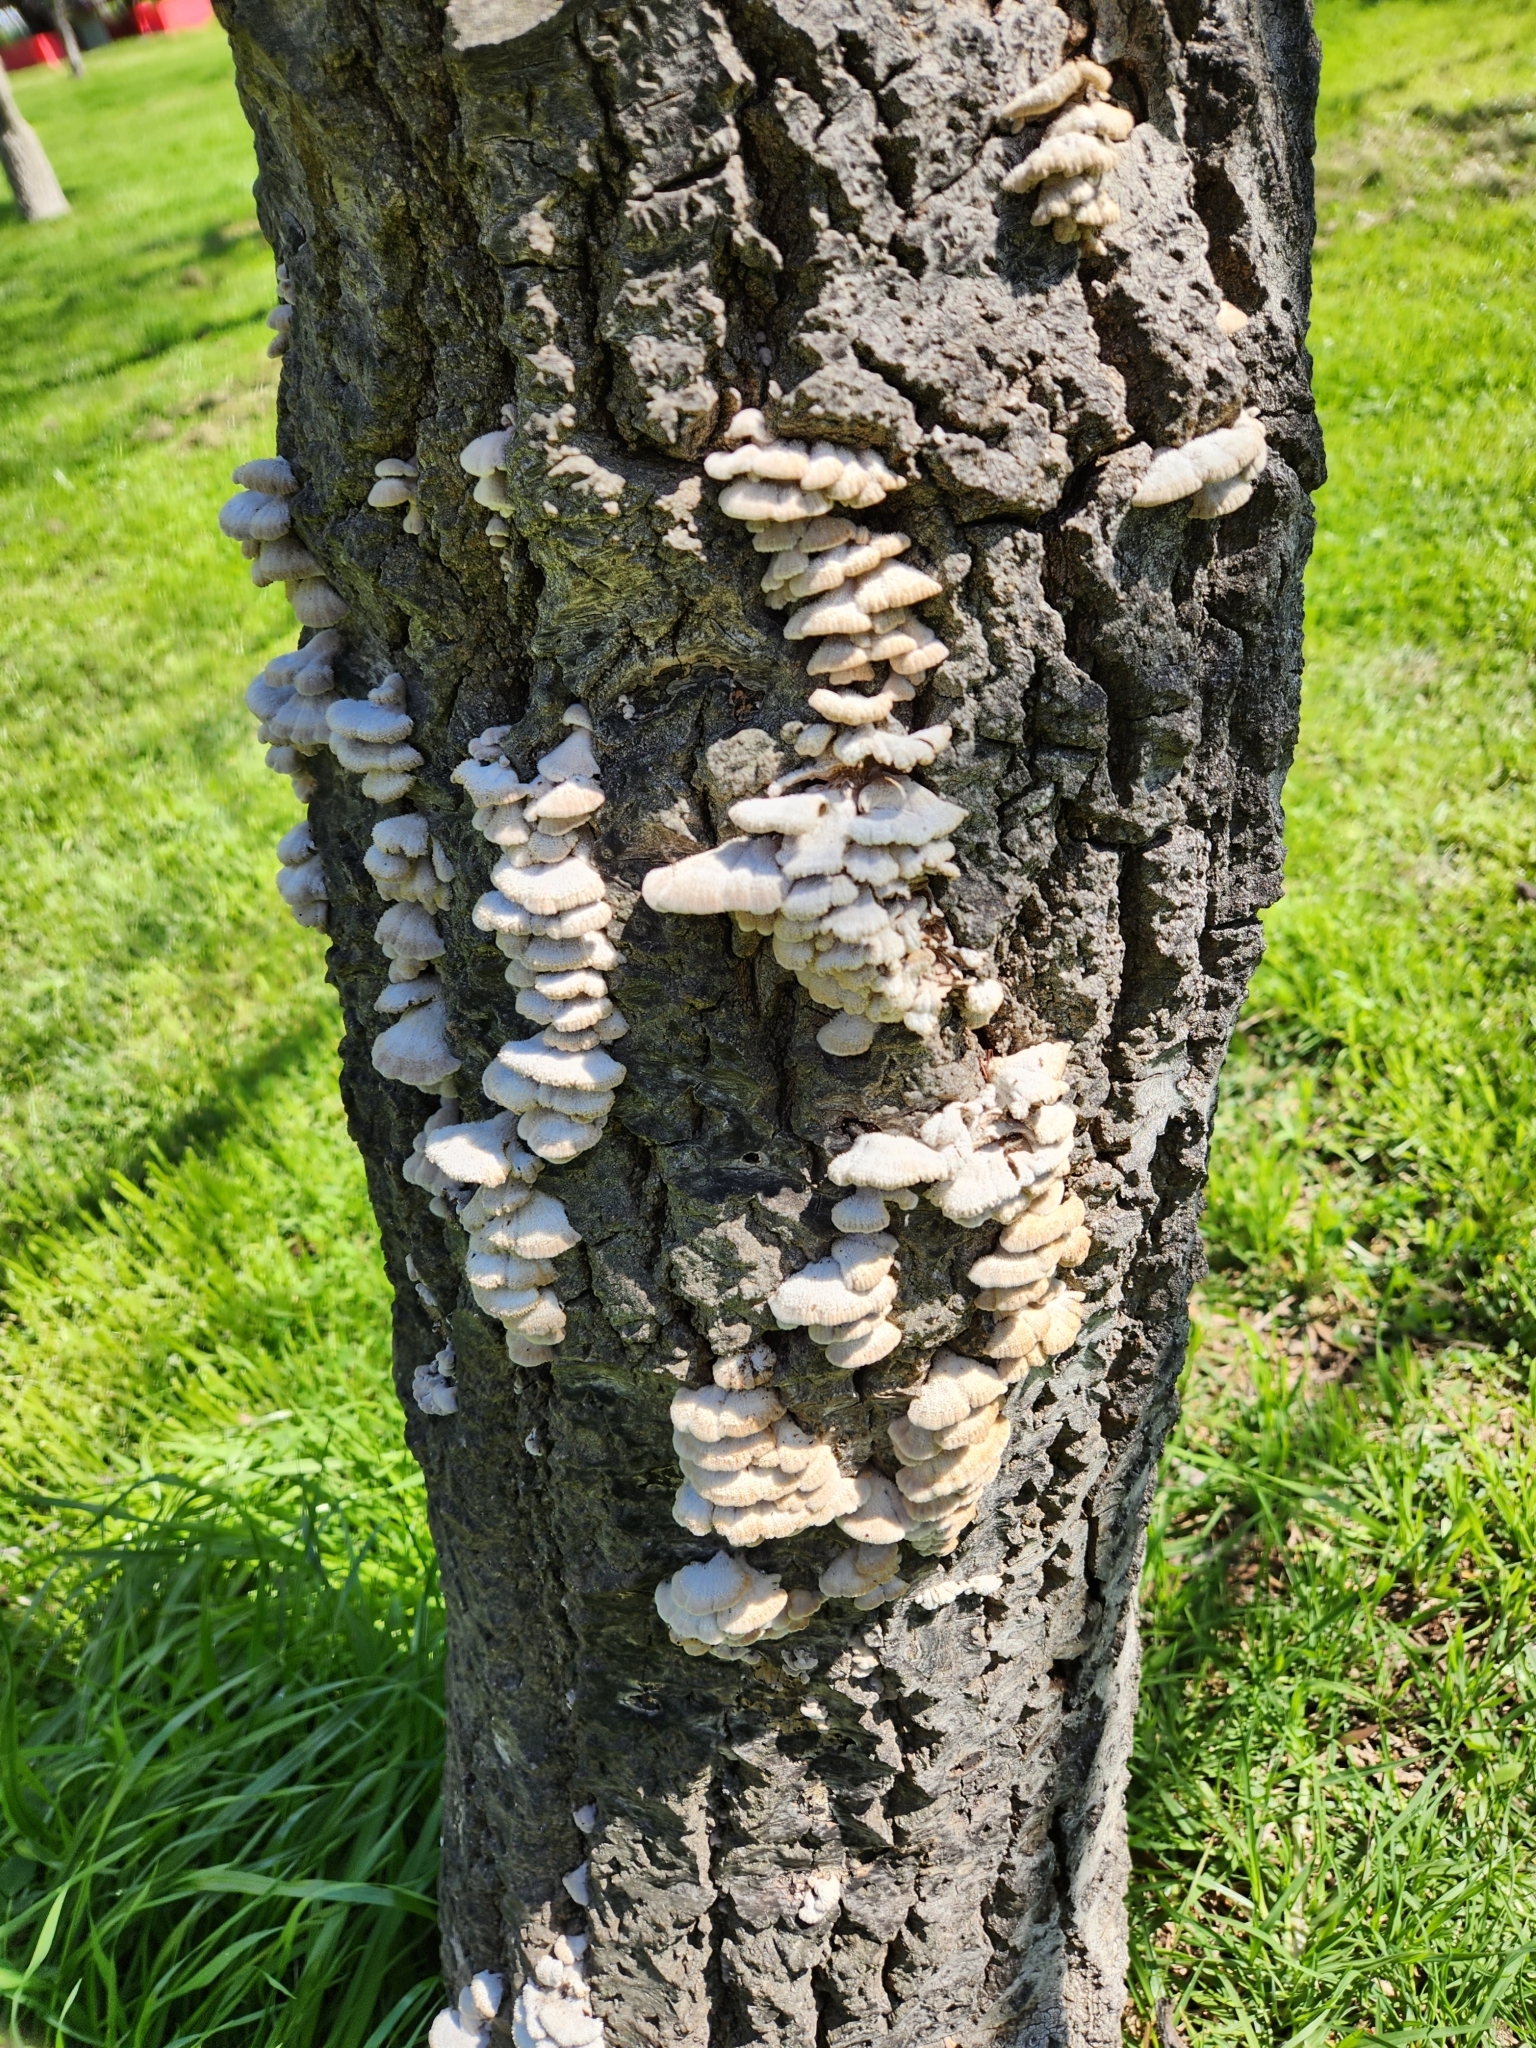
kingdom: Fungi
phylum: Basidiomycota
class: Agaricomycetes
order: Agaricales
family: Schizophyllaceae
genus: Schizophyllum
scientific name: Schizophyllum commune
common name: Common porecrust
